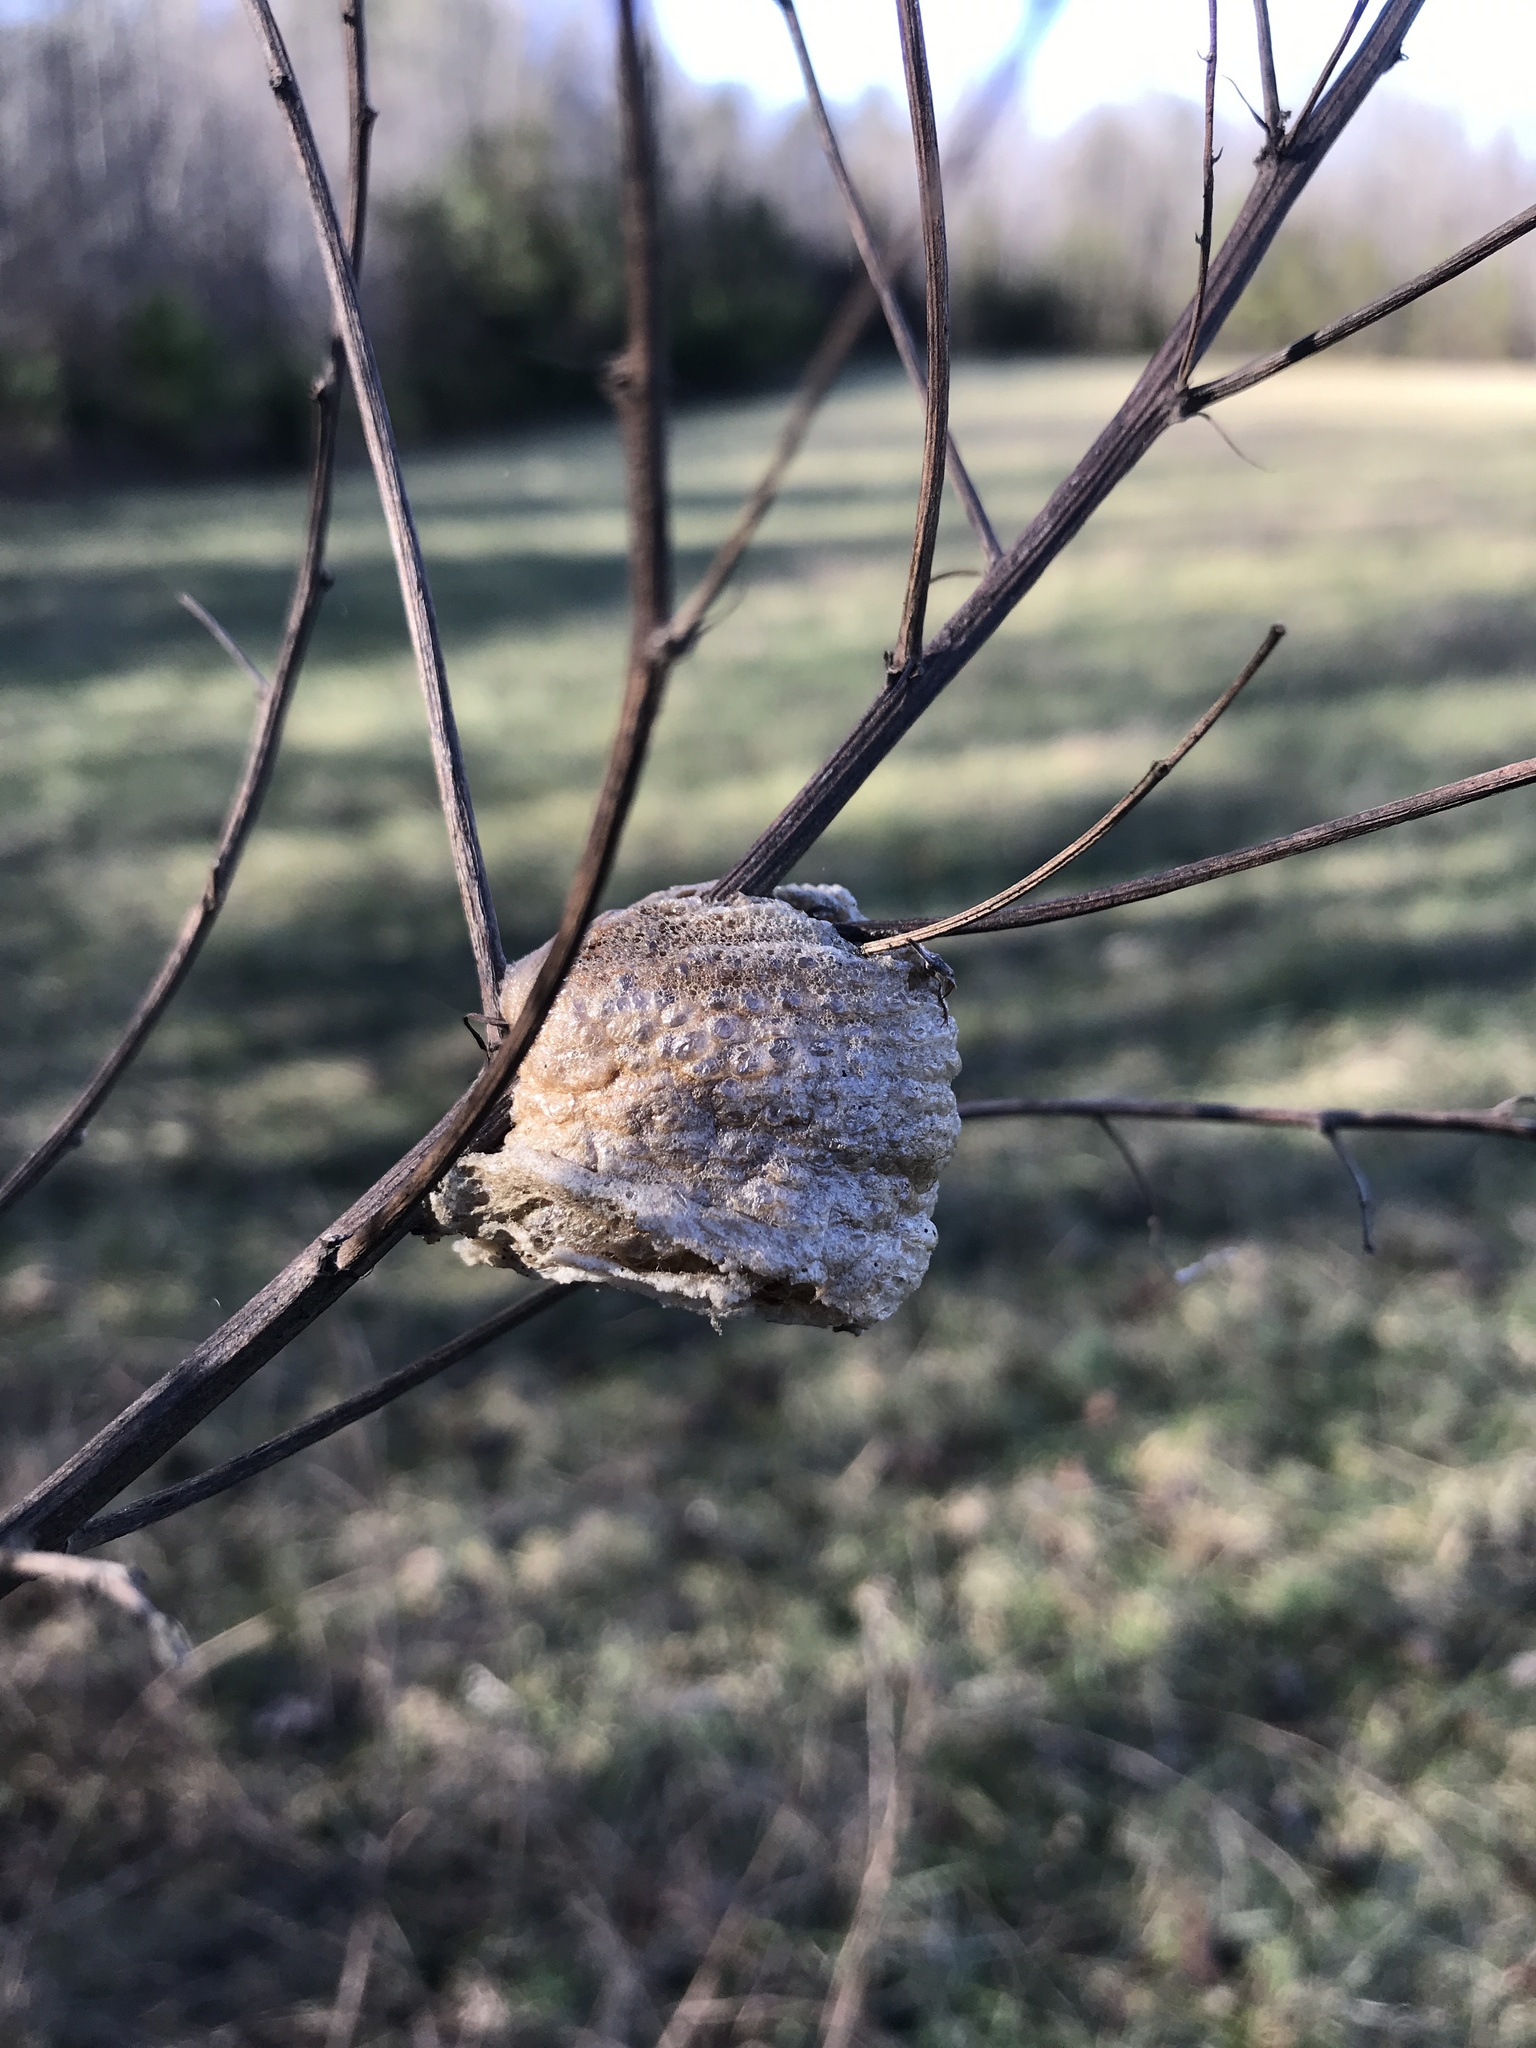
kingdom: Animalia
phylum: Arthropoda
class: Insecta
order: Mantodea
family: Mantidae
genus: Tenodera
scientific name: Tenodera sinensis
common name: Chinese mantis
